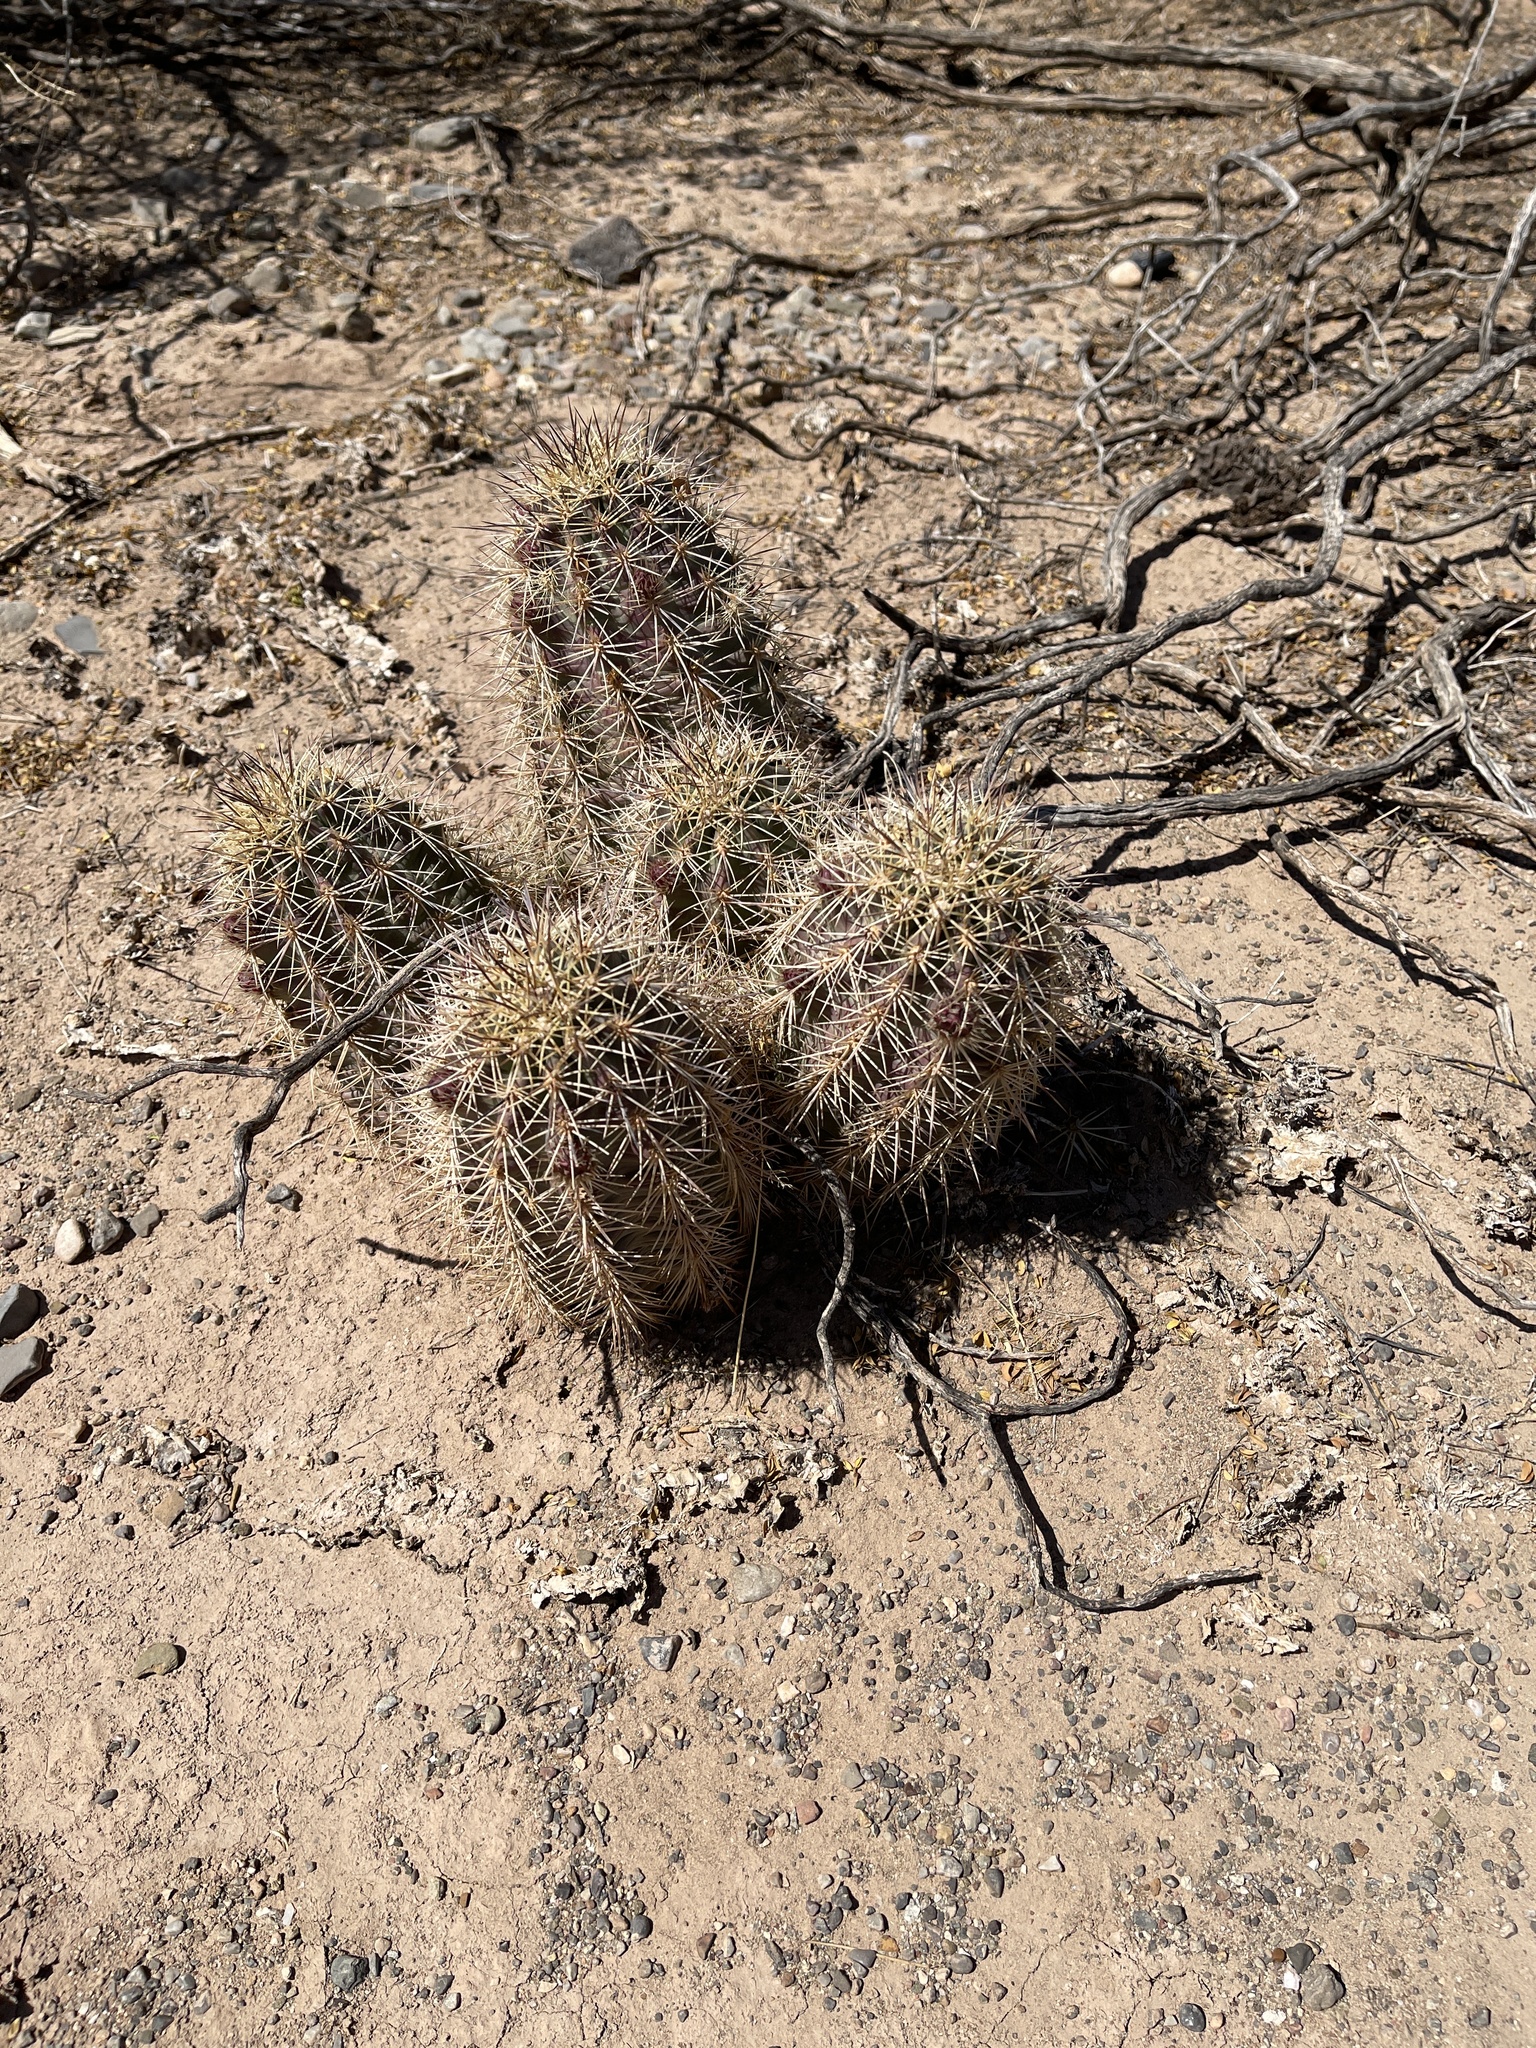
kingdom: Plantae
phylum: Tracheophyta
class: Magnoliopsida
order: Caryophyllales
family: Cactaceae
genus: Echinocereus
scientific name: Echinocereus coccineus
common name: Scarlet hedgehog cactus
